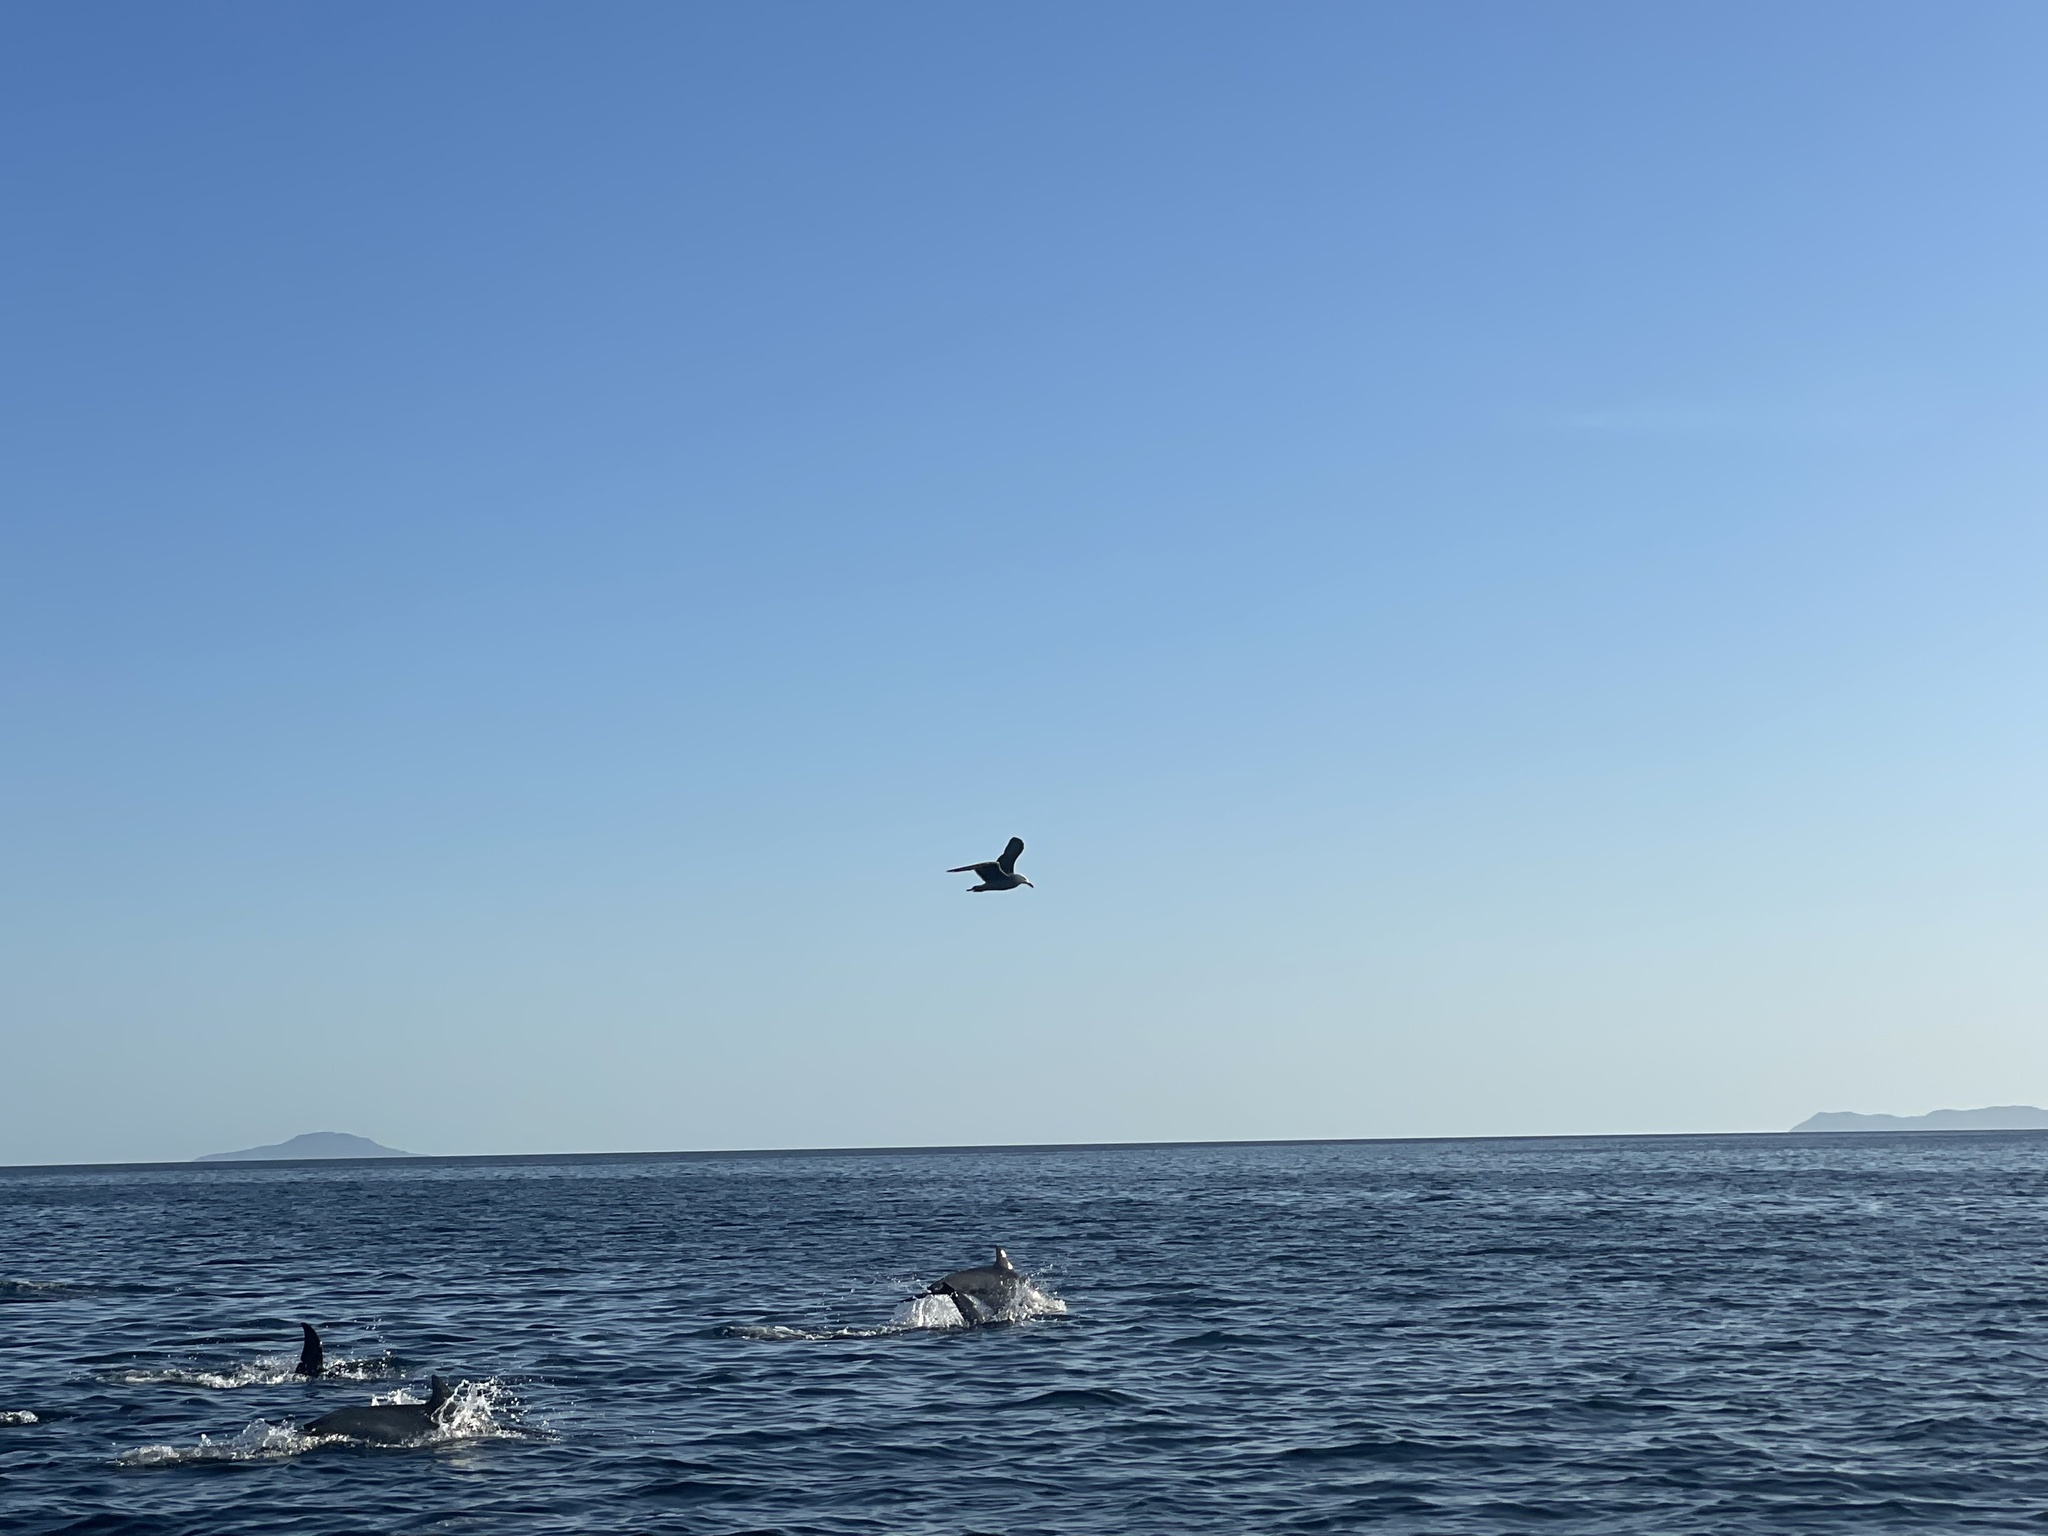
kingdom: Animalia
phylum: Chordata
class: Aves
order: Charadriiformes
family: Laridae
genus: Larus
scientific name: Larus heermanni
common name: Heermann's gull
